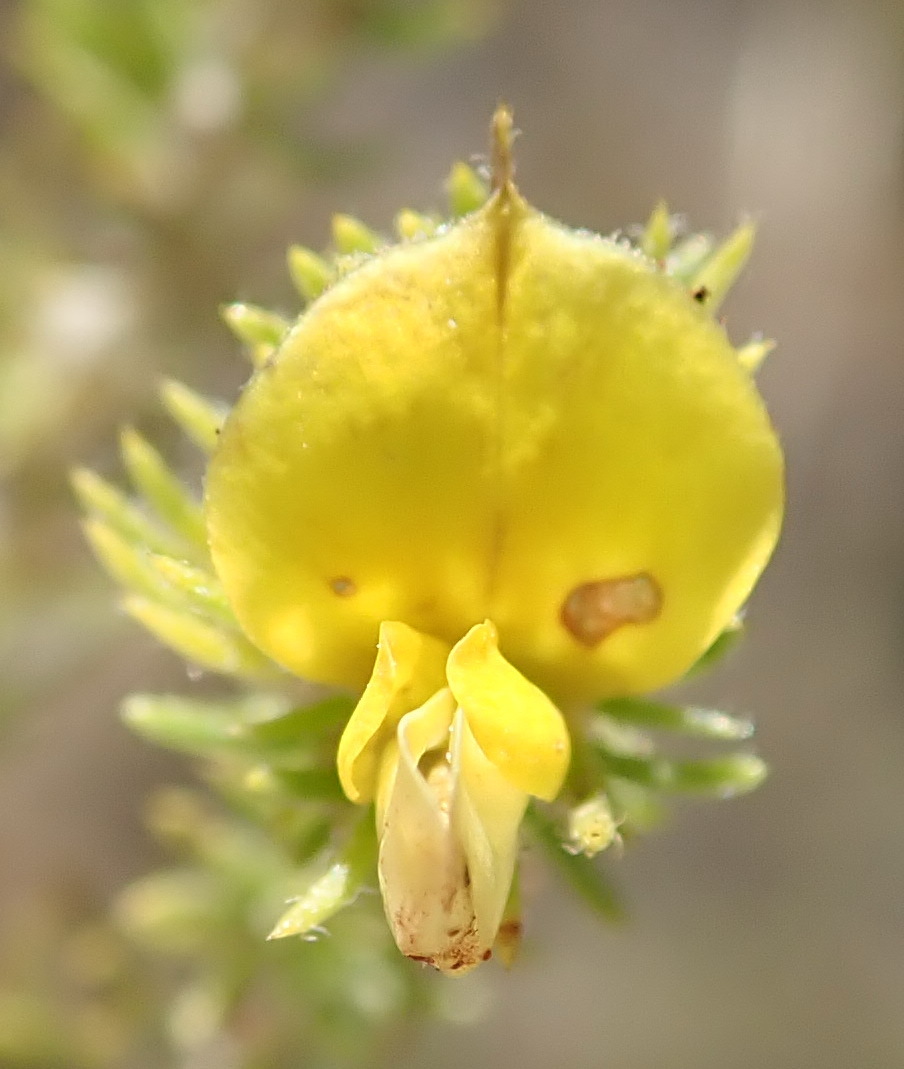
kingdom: Plantae
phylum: Tracheophyta
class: Magnoliopsida
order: Fabales
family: Fabaceae
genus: Aspalathus
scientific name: Aspalathus ciliaris
